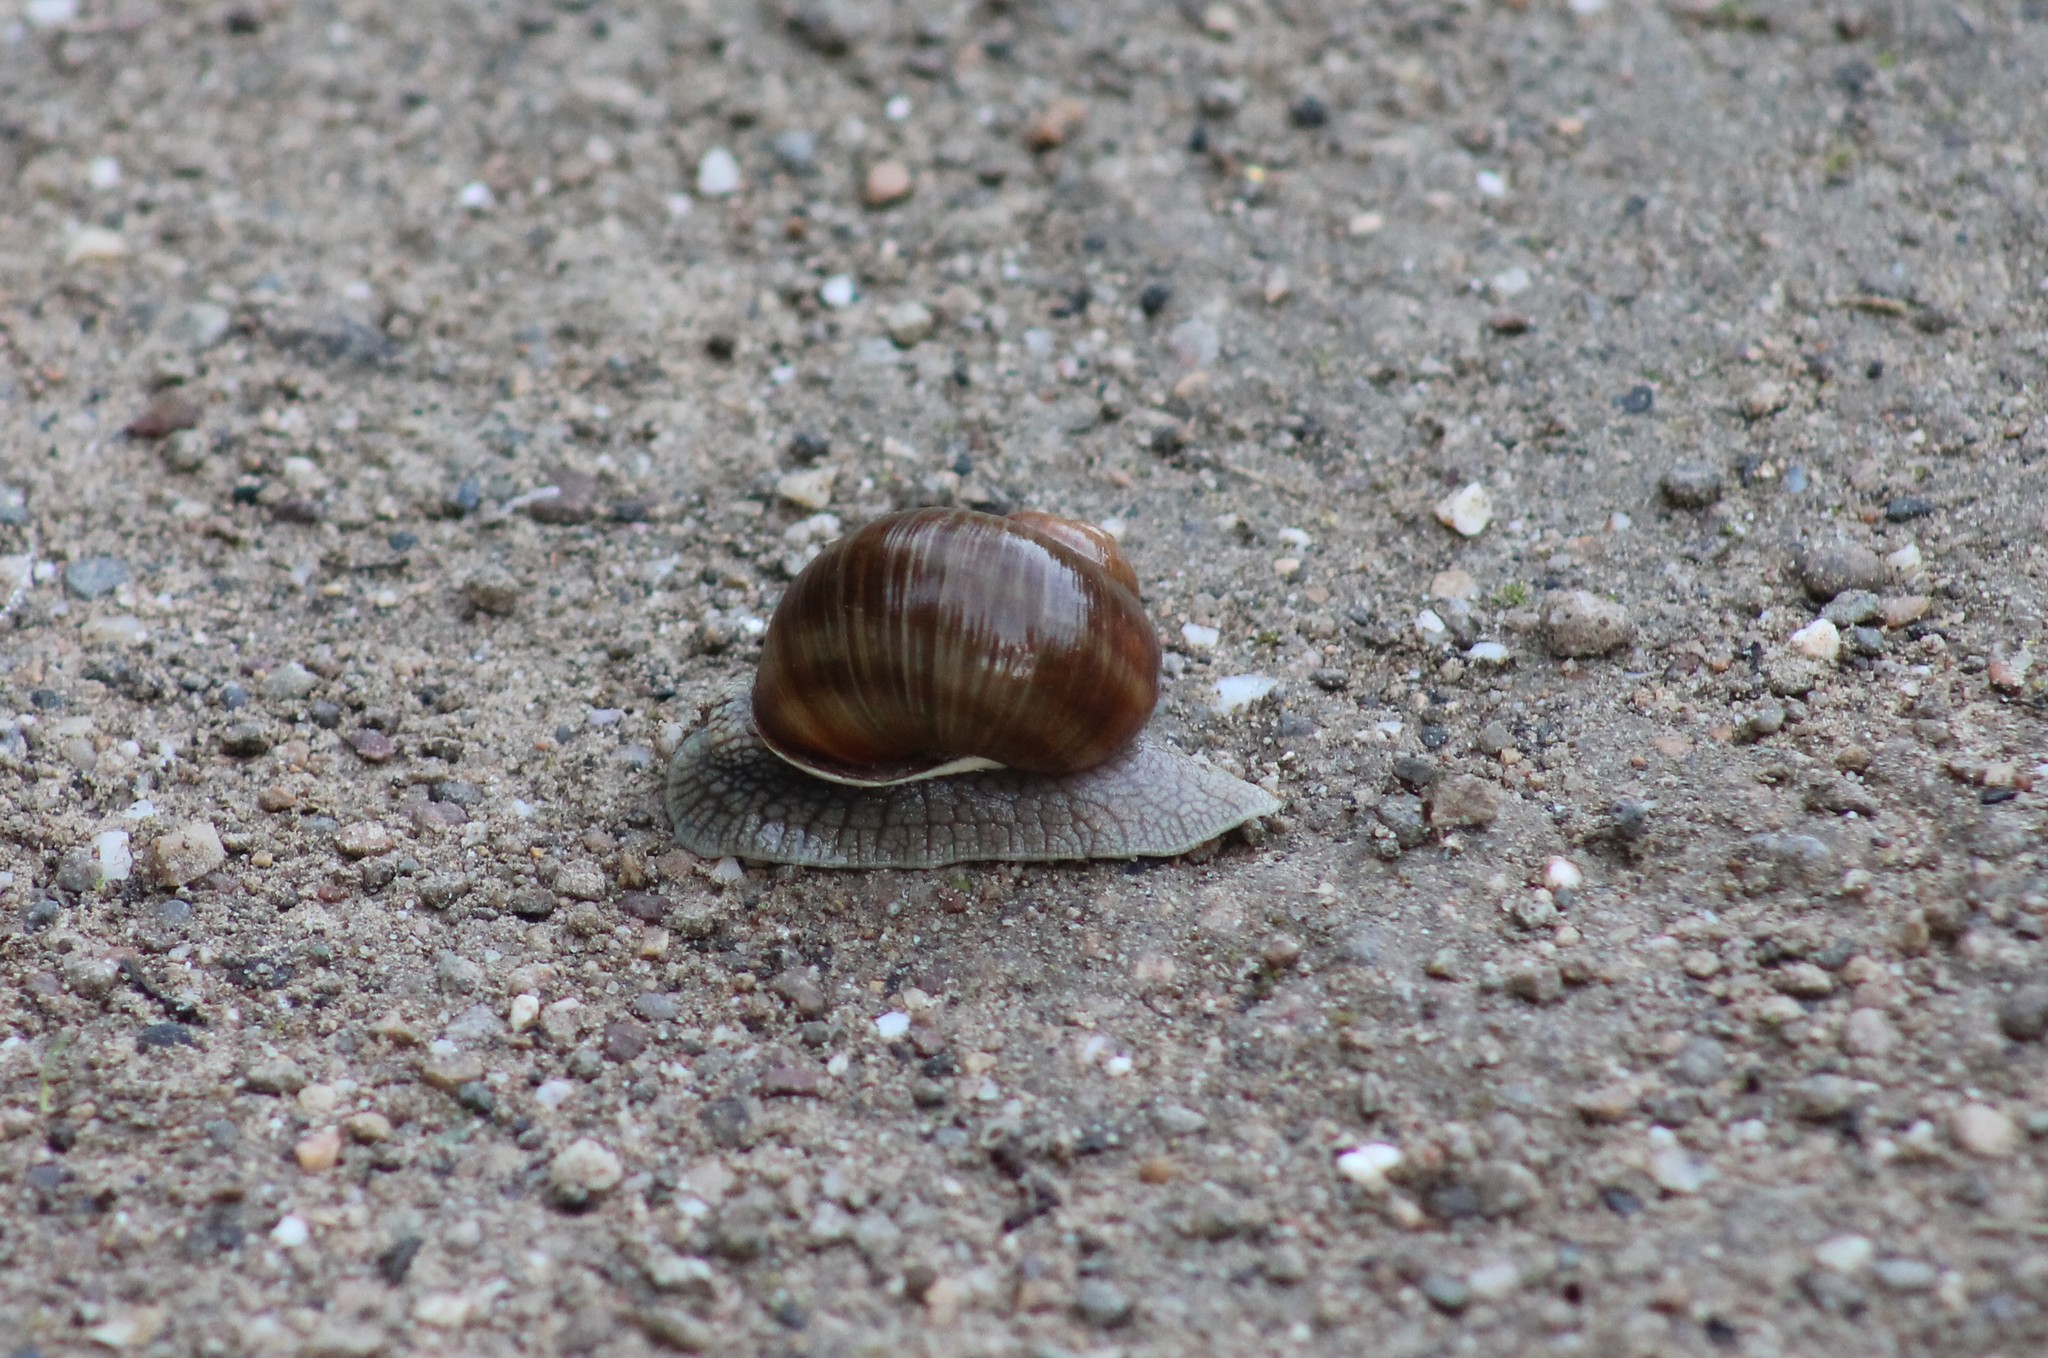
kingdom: Animalia
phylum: Mollusca
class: Gastropoda
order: Stylommatophora
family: Helicidae
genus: Helix
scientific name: Helix pomatia
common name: Roman snail
